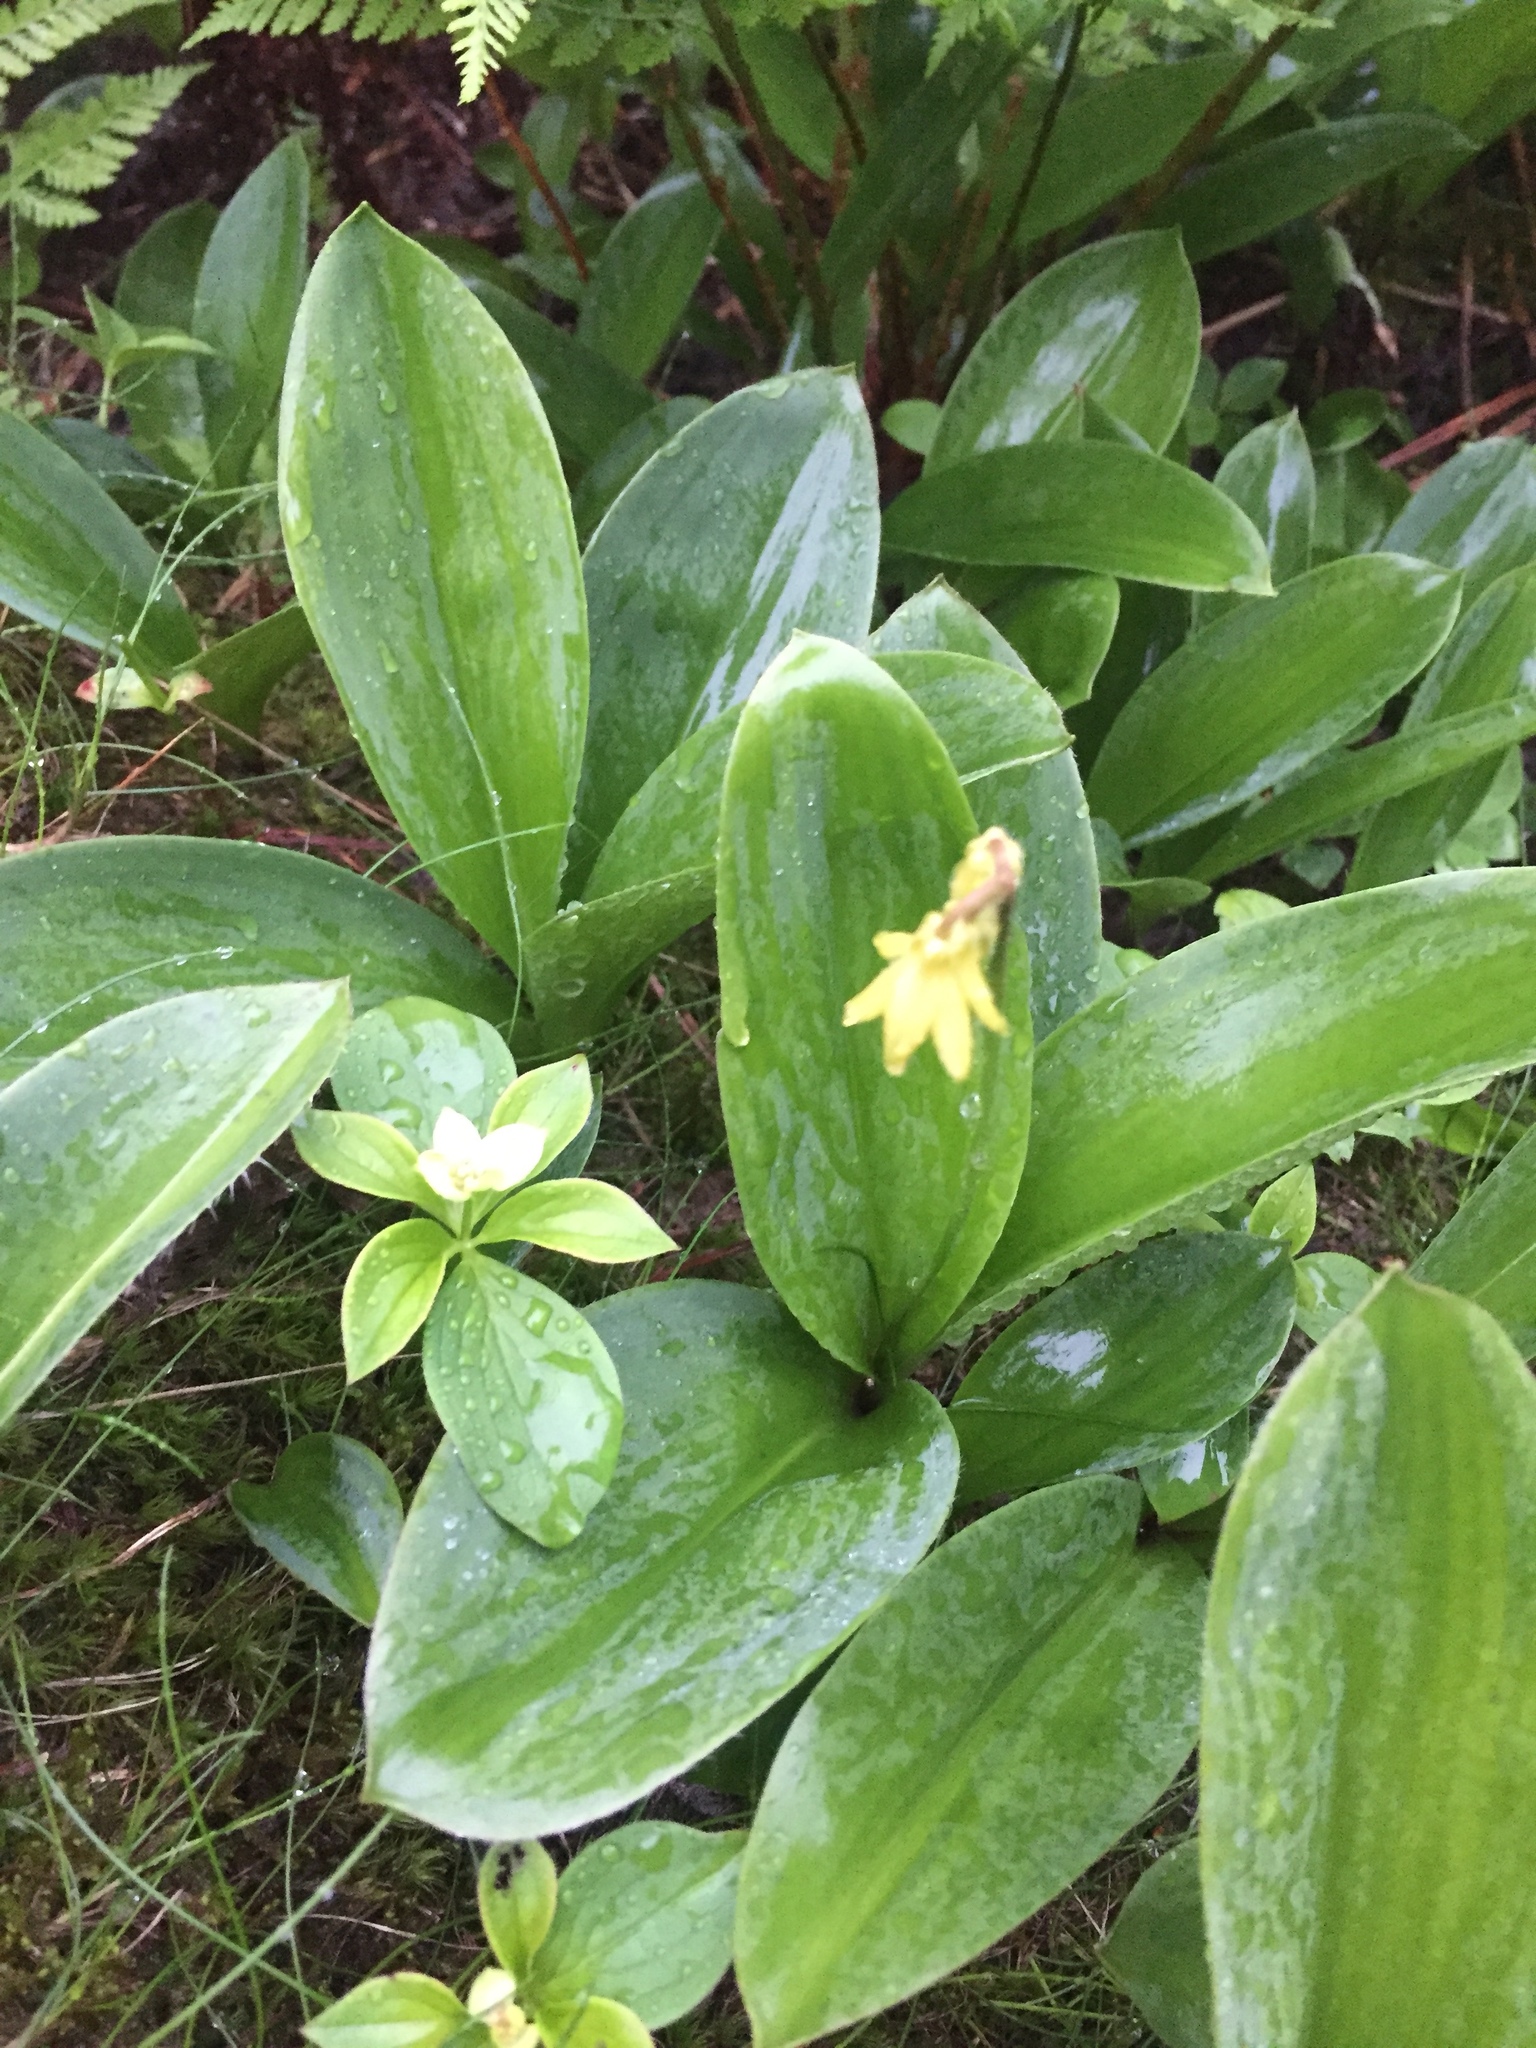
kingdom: Plantae
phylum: Tracheophyta
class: Liliopsida
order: Liliales
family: Liliaceae
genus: Clintonia
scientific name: Clintonia borealis
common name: Yellow clintonia
